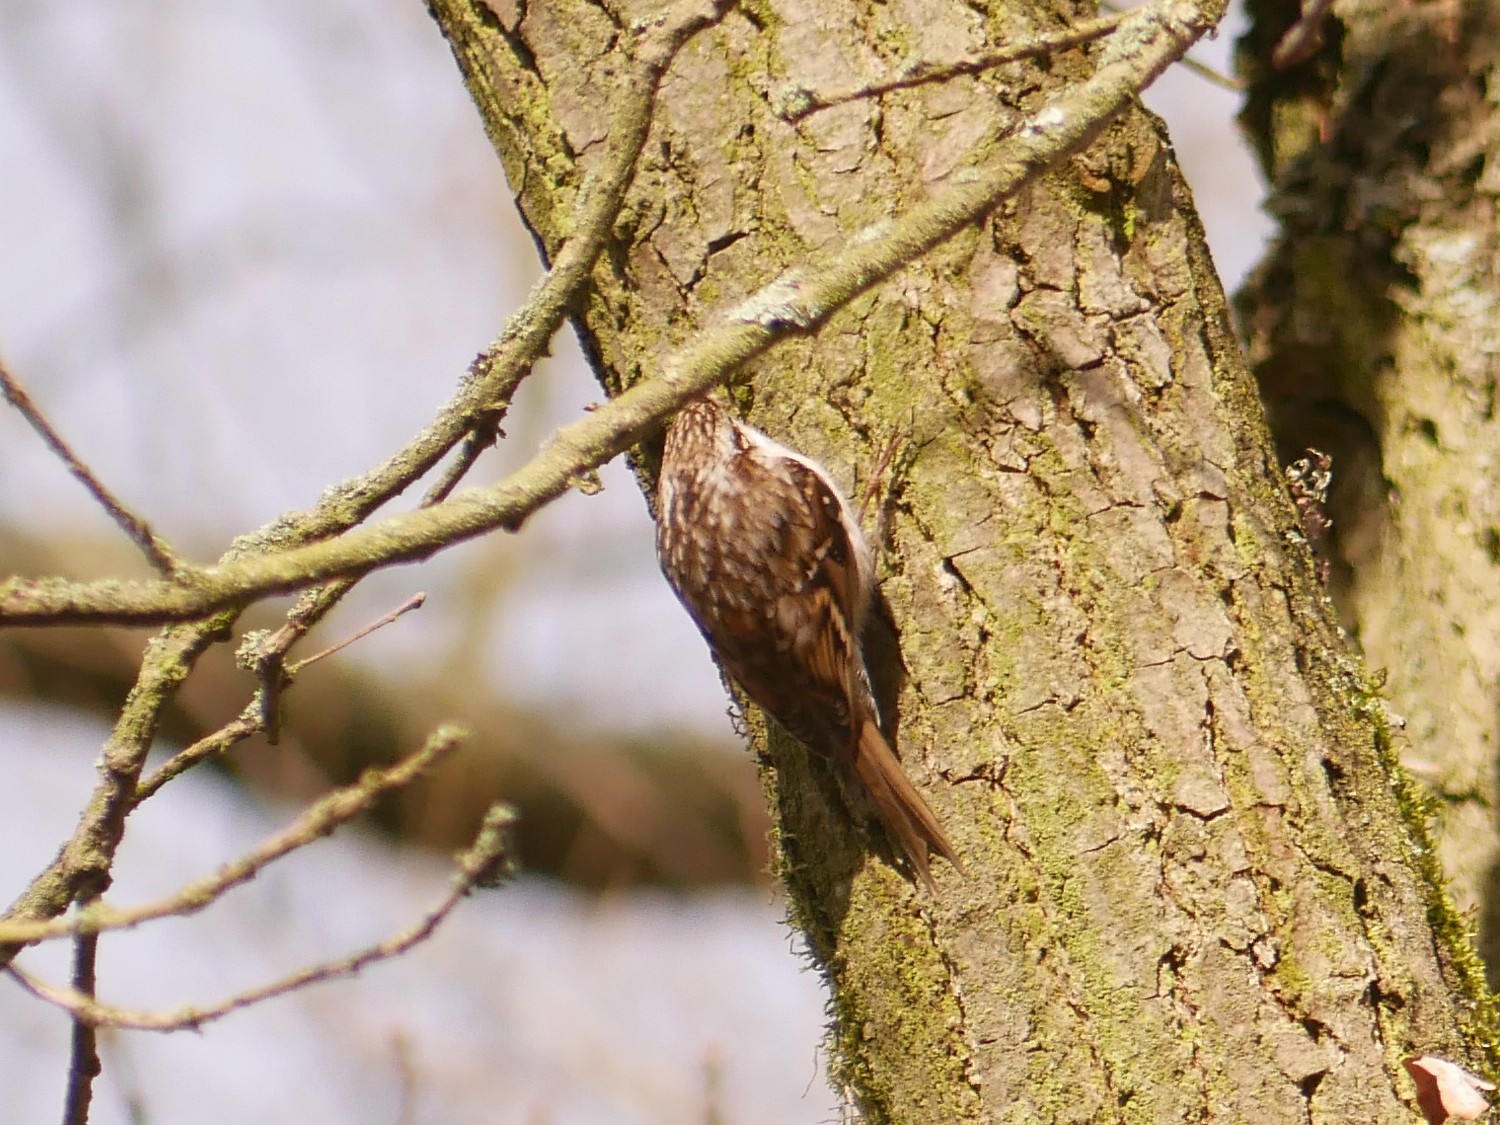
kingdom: Animalia
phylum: Chordata
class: Aves
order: Passeriformes
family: Certhiidae
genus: Certhia
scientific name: Certhia brachydactyla
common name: Short-toed treecreeper
